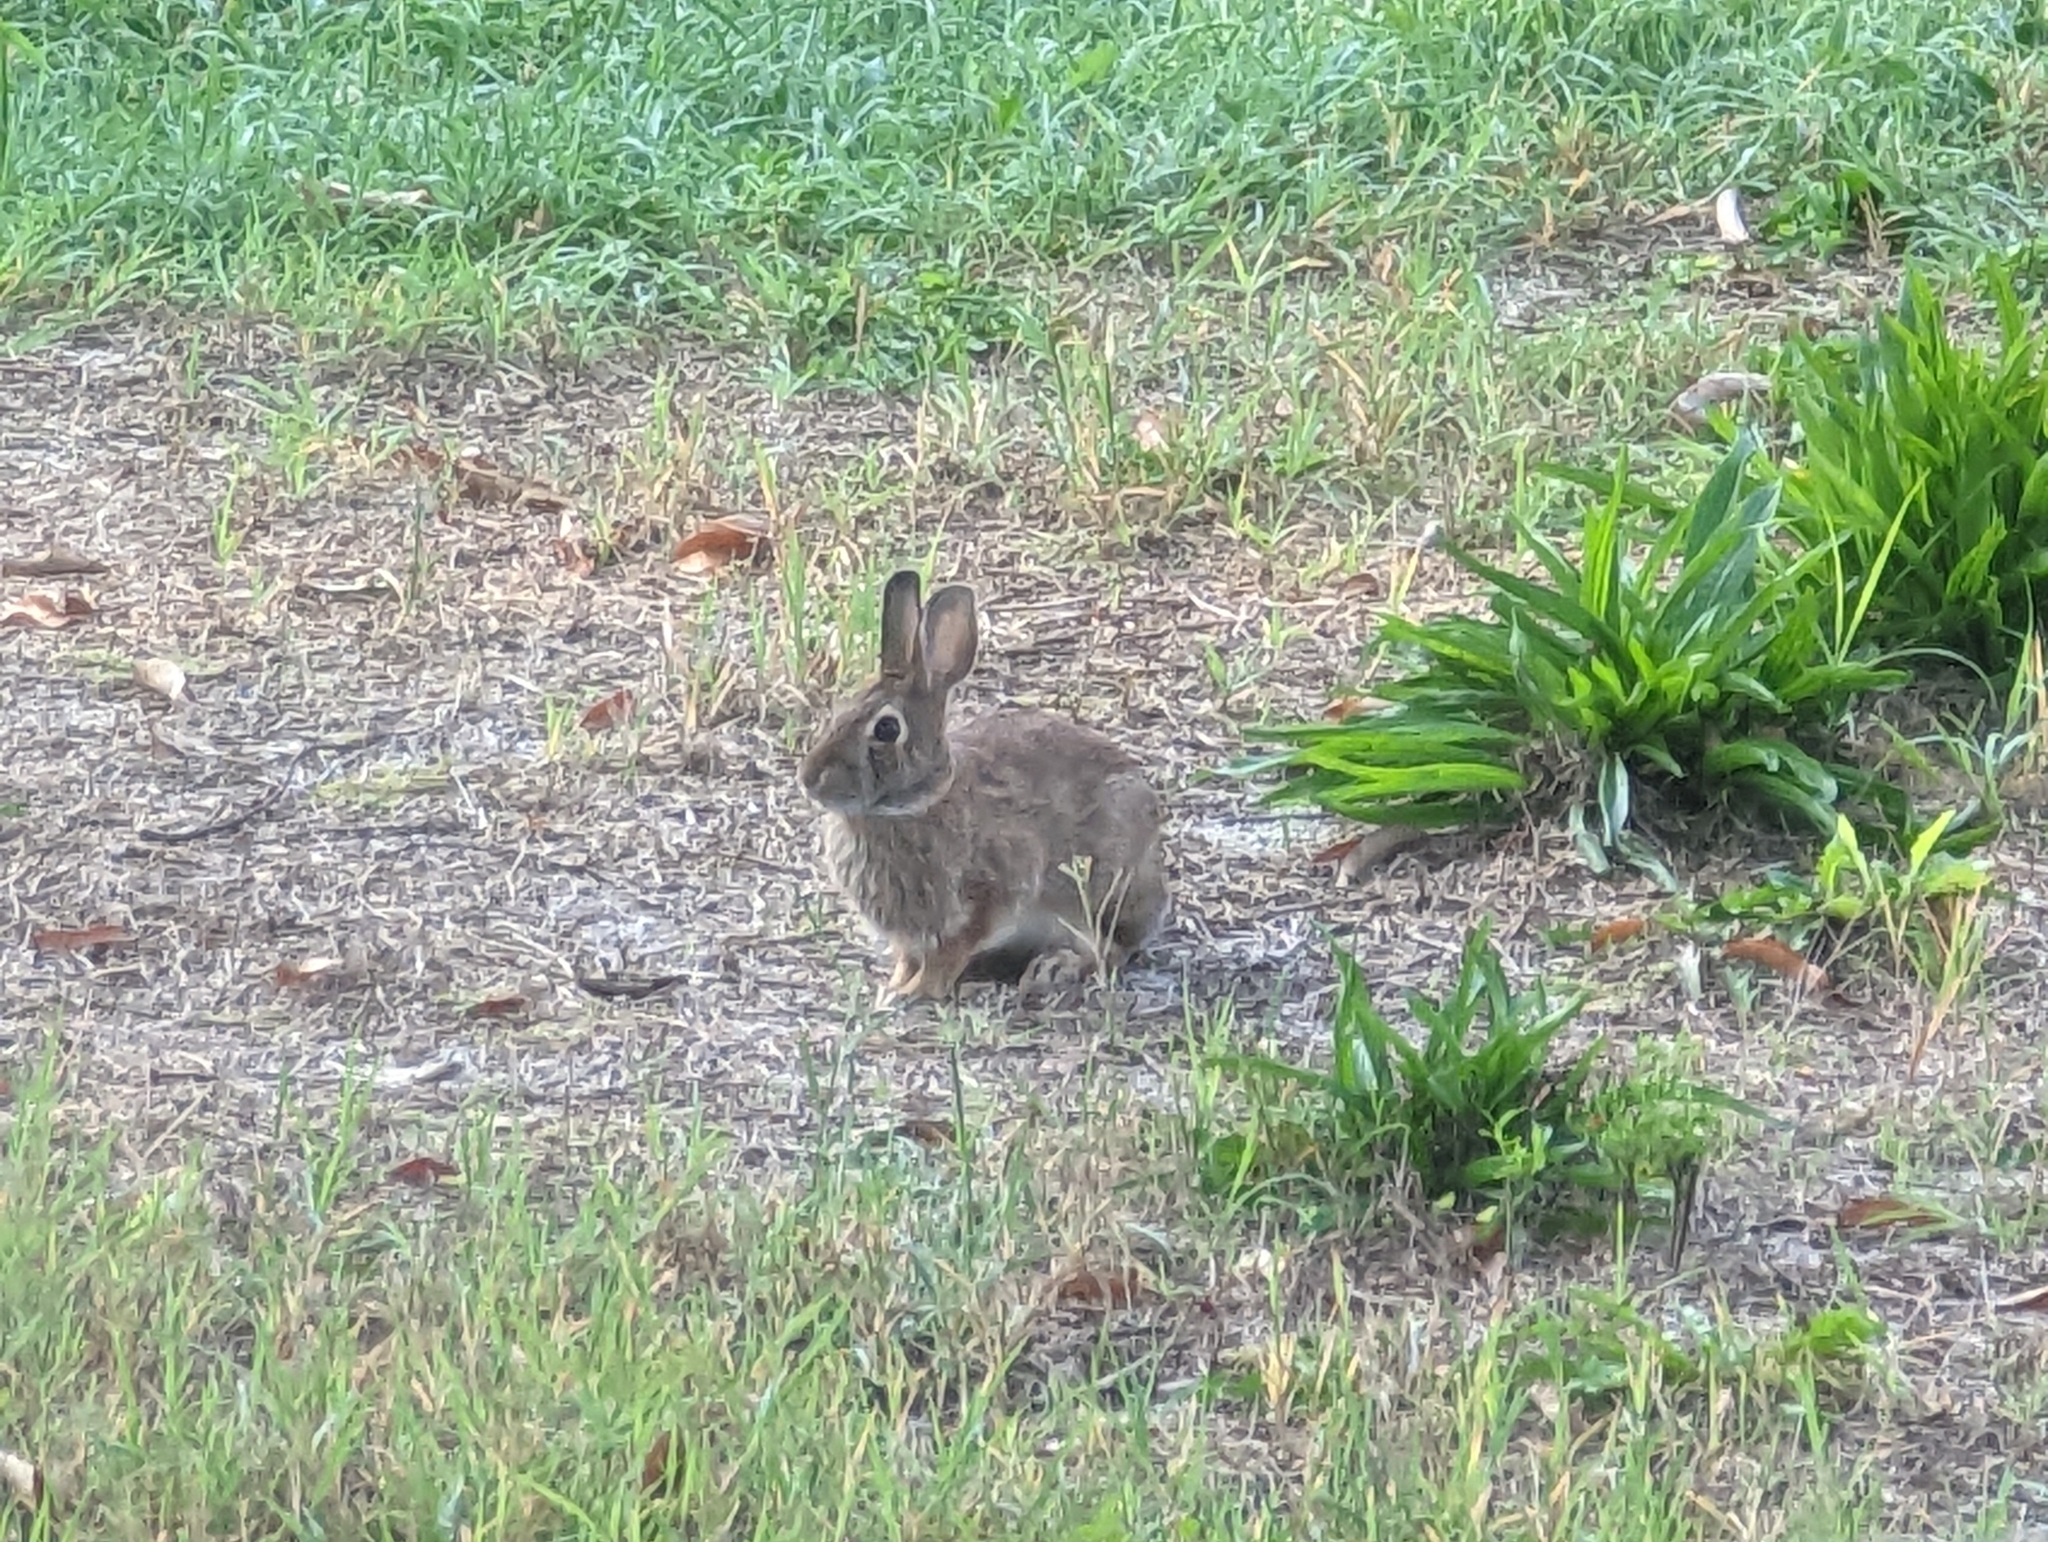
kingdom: Animalia
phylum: Chordata
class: Mammalia
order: Lagomorpha
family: Leporidae
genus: Sylvilagus
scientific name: Sylvilagus floridanus
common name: Eastern cottontail
